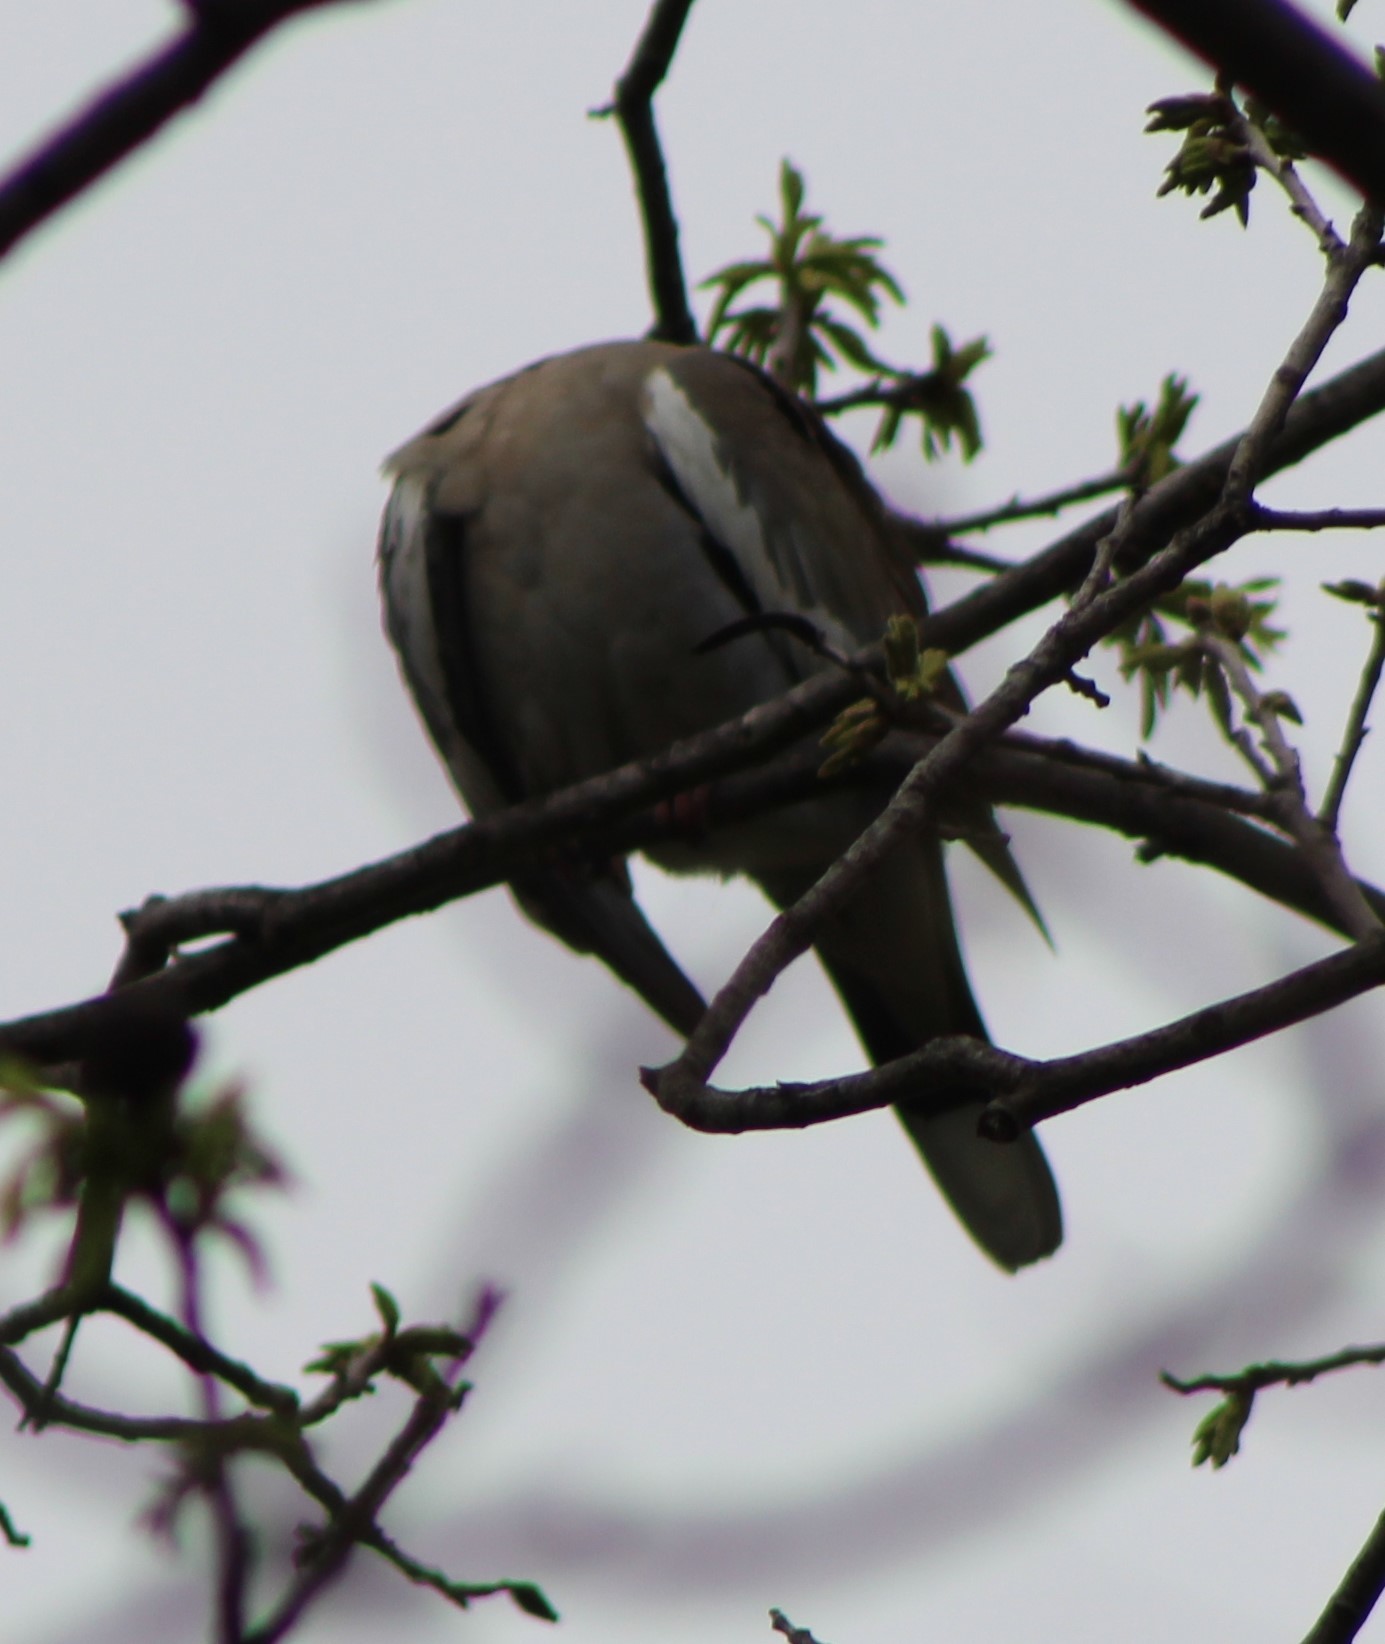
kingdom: Animalia
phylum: Chordata
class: Aves
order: Columbiformes
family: Columbidae
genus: Zenaida
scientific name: Zenaida asiatica
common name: White-winged dove
